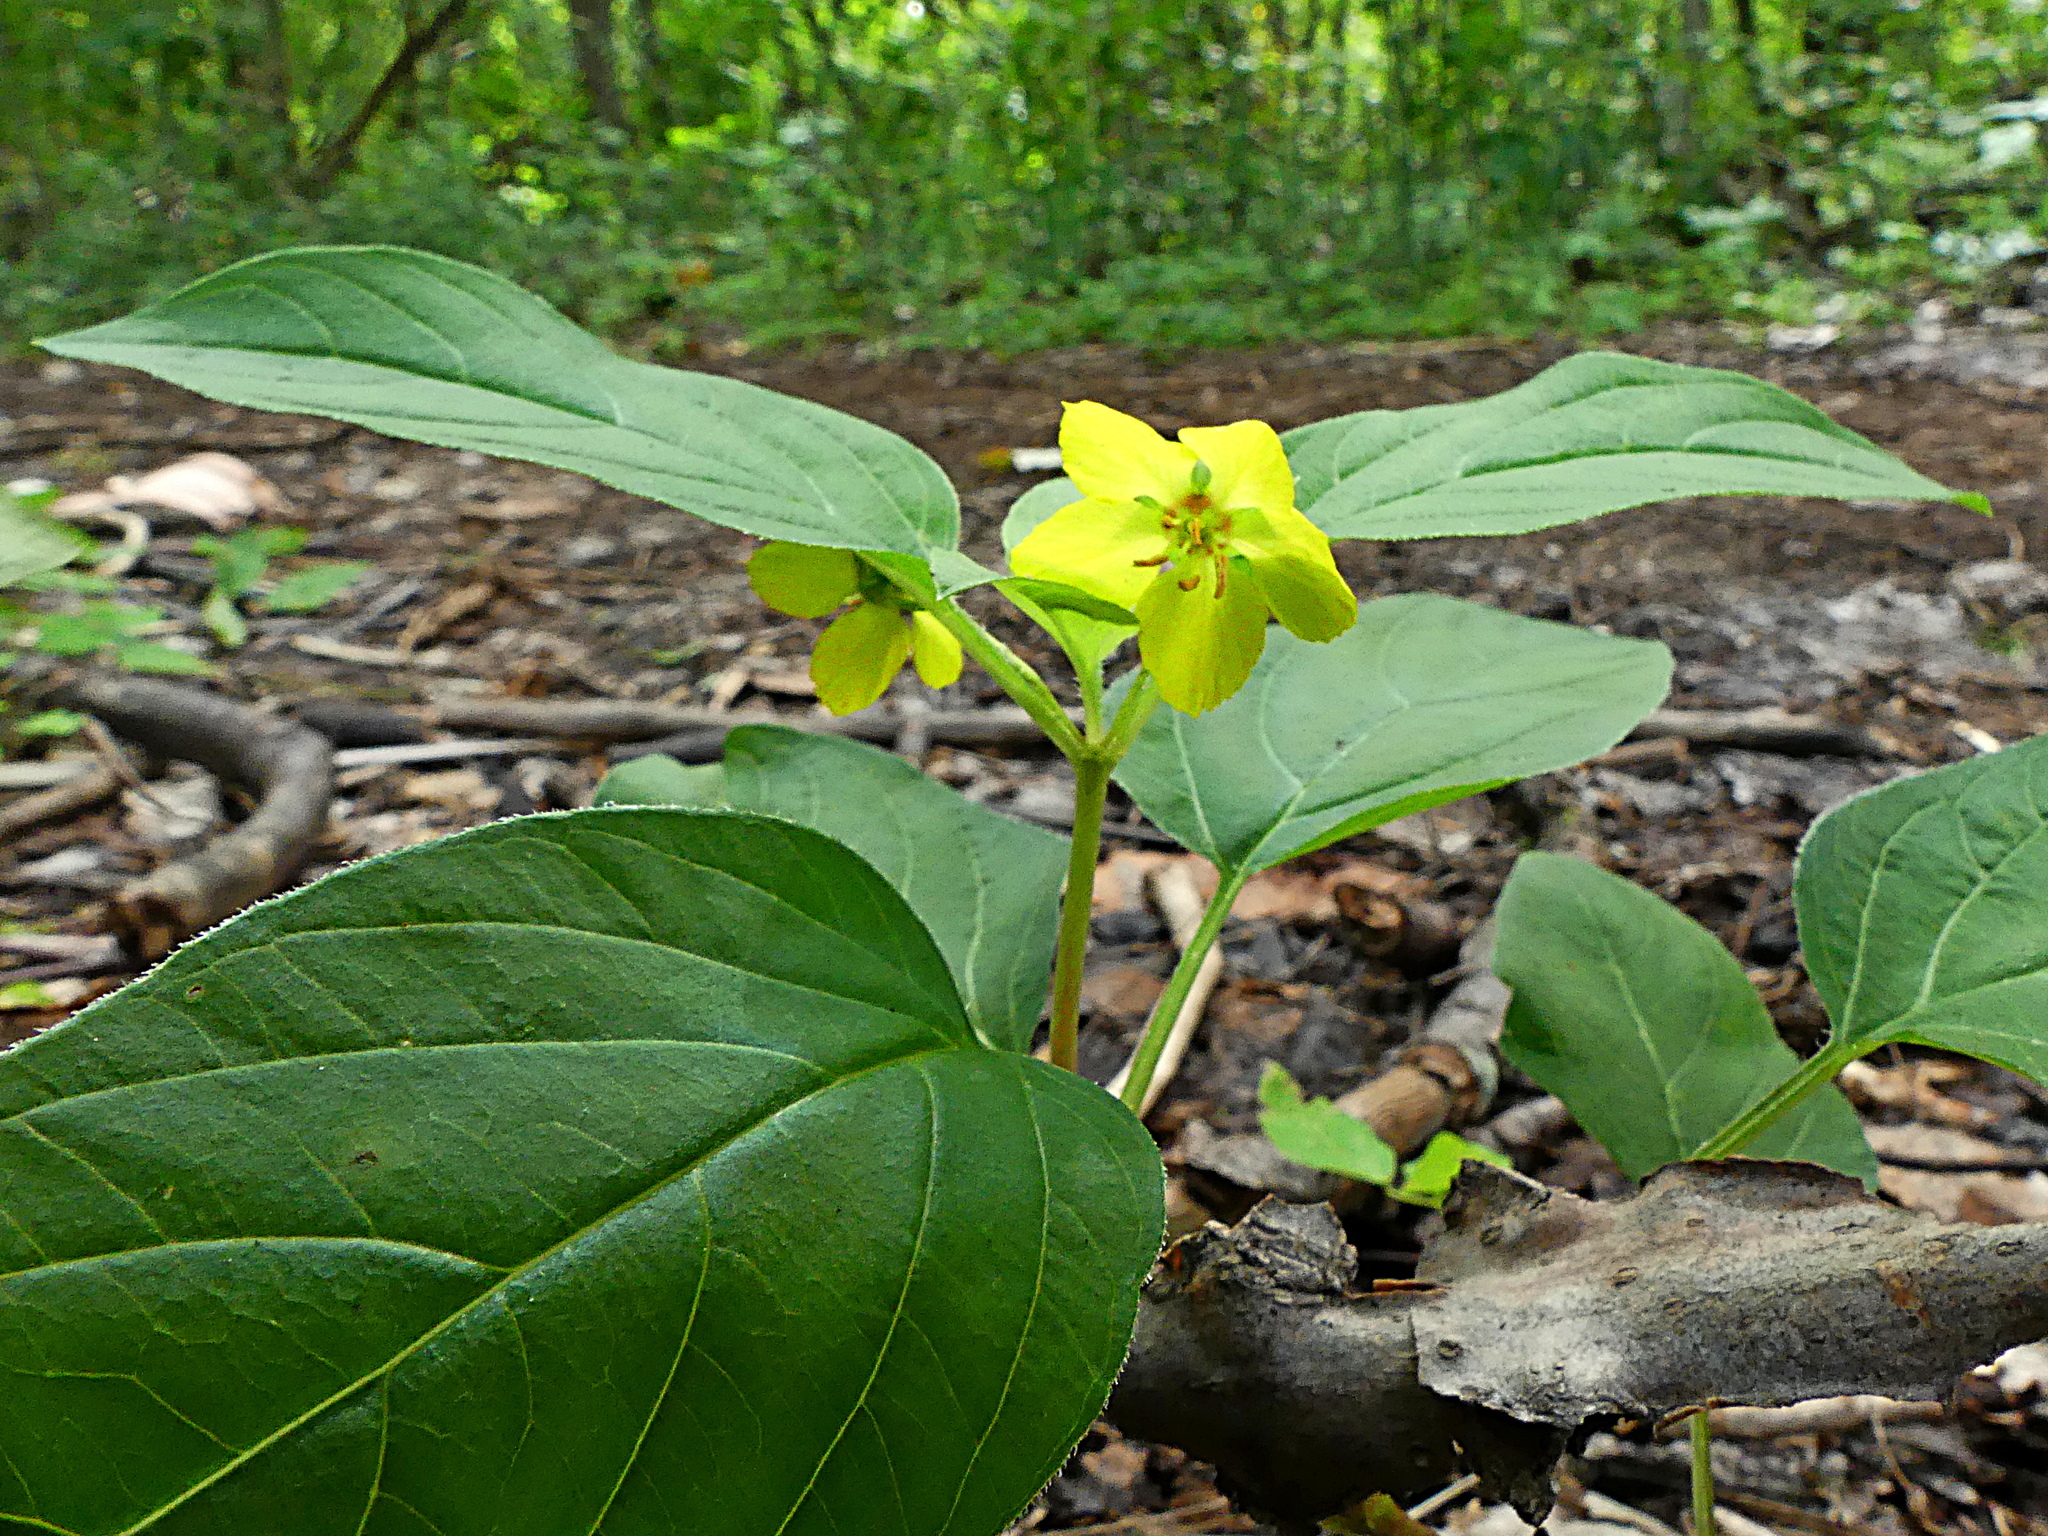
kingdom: Plantae
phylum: Tracheophyta
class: Magnoliopsida
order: Ericales
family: Primulaceae
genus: Lysimachia
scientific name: Lysimachia ciliata
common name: Fringed loosestrife
